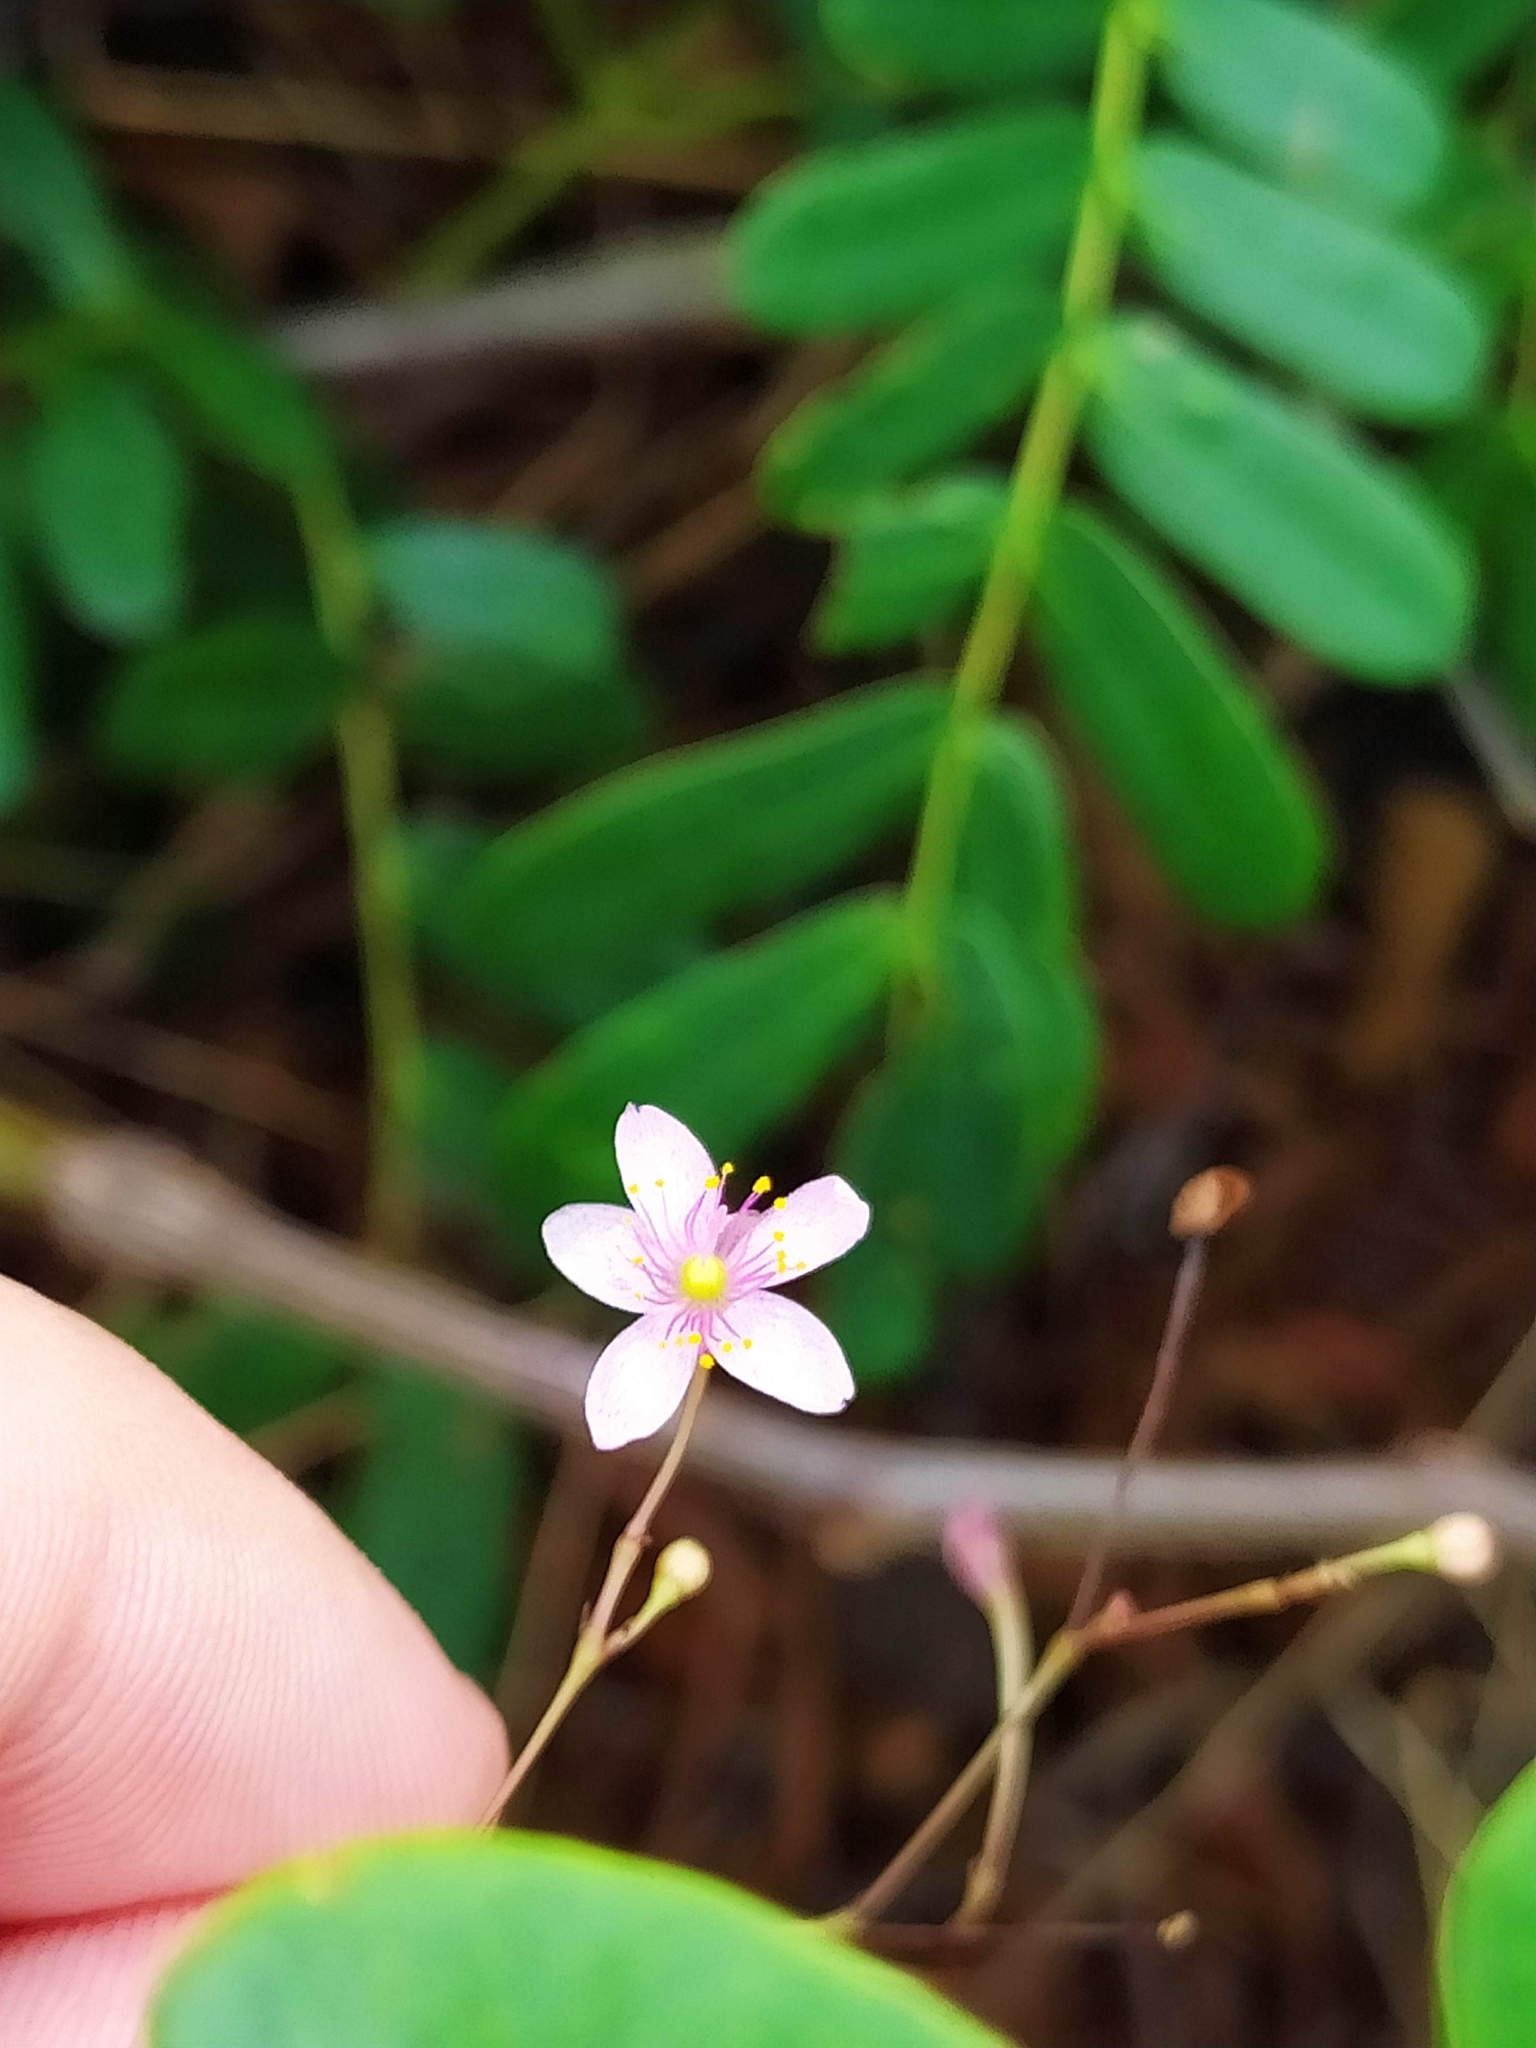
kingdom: Plantae
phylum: Tracheophyta
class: Magnoliopsida
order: Caryophyllales
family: Talinaceae
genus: Talinum
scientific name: Talinum paniculatum
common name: Jewels of opar
